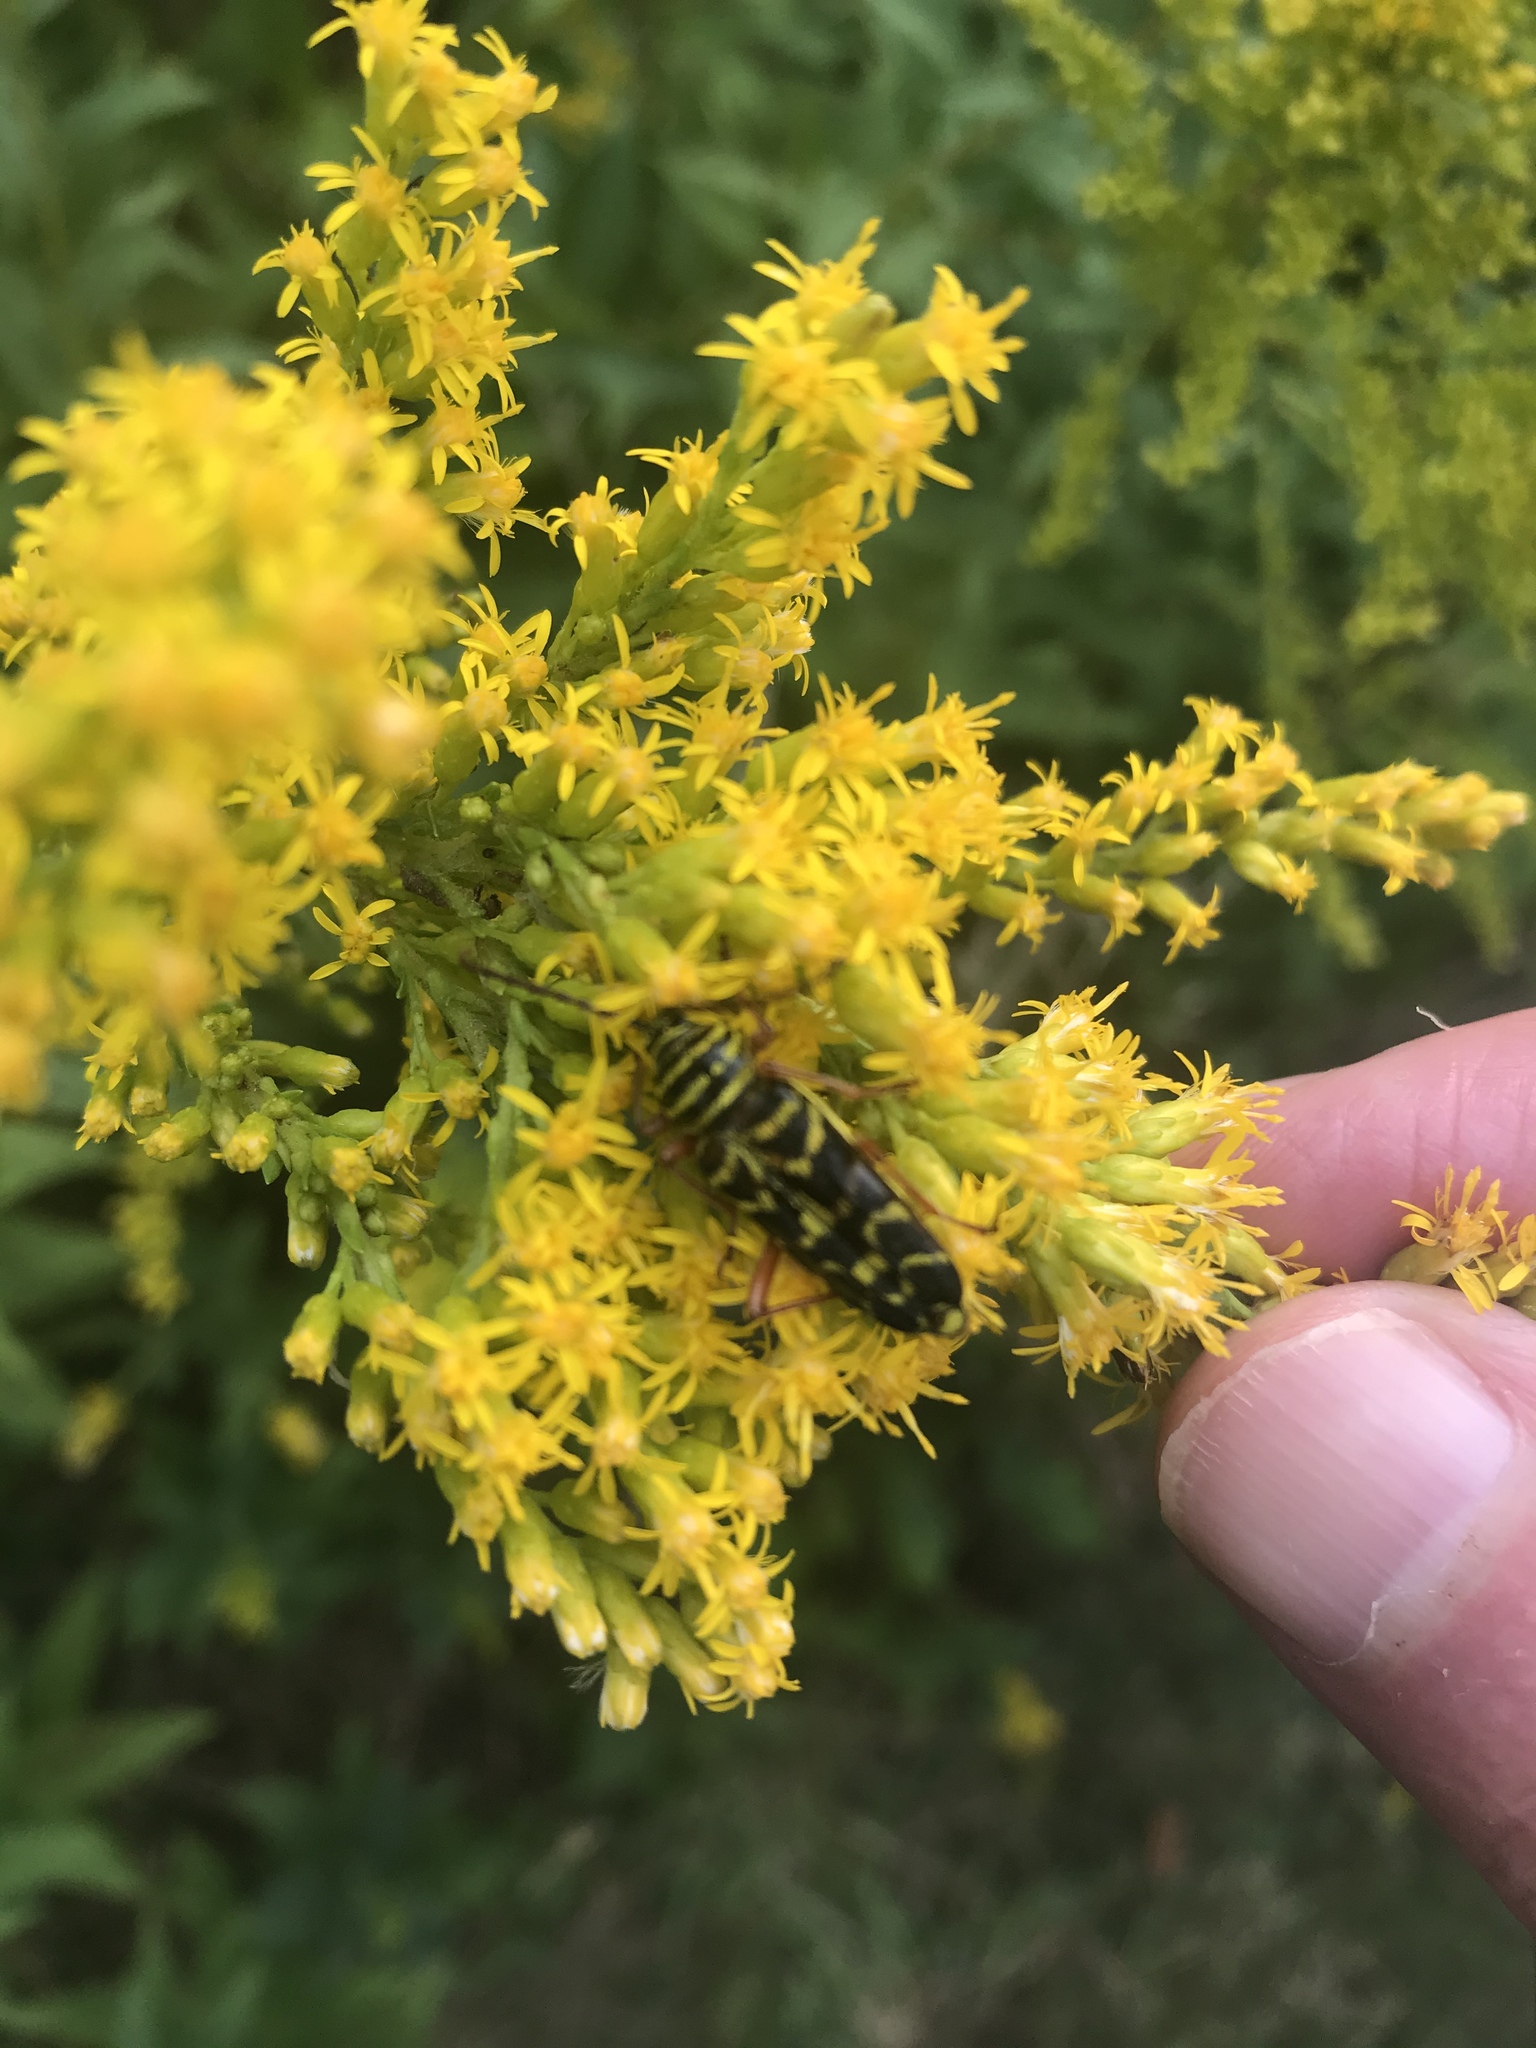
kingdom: Animalia
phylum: Arthropoda
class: Insecta
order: Coleoptera
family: Cerambycidae
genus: Megacyllene
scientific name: Megacyllene robiniae
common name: Locust borer
